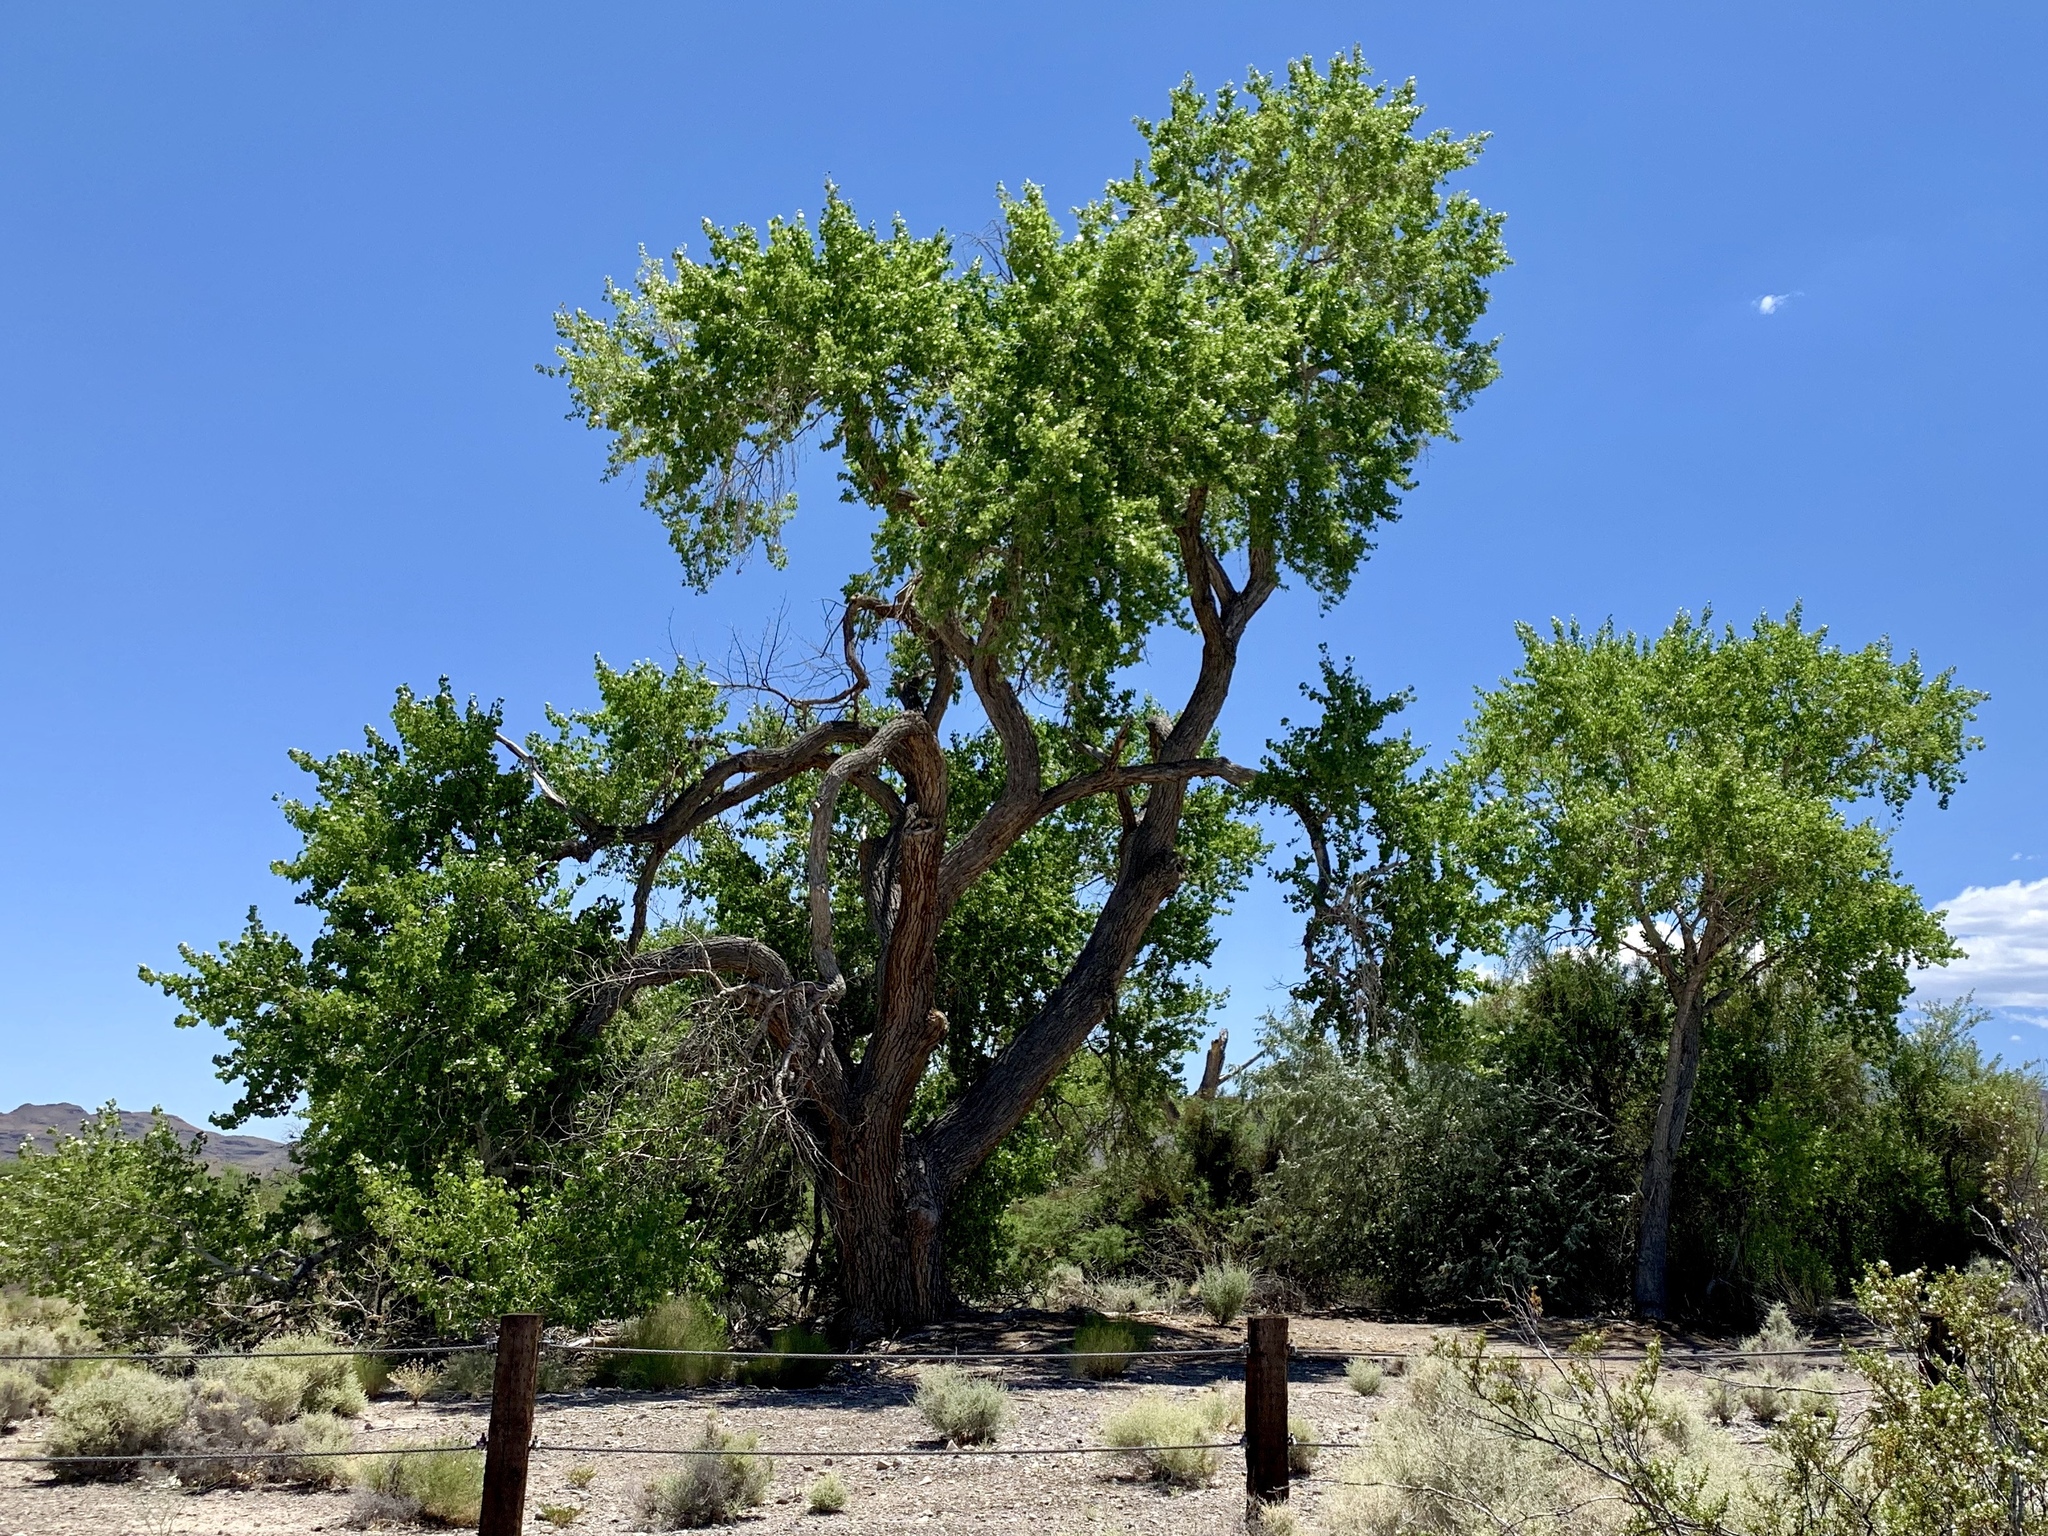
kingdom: Plantae
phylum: Tracheophyta
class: Magnoliopsida
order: Malpighiales
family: Salicaceae
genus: Populus
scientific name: Populus fremontii
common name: Fremont's cottonwood
